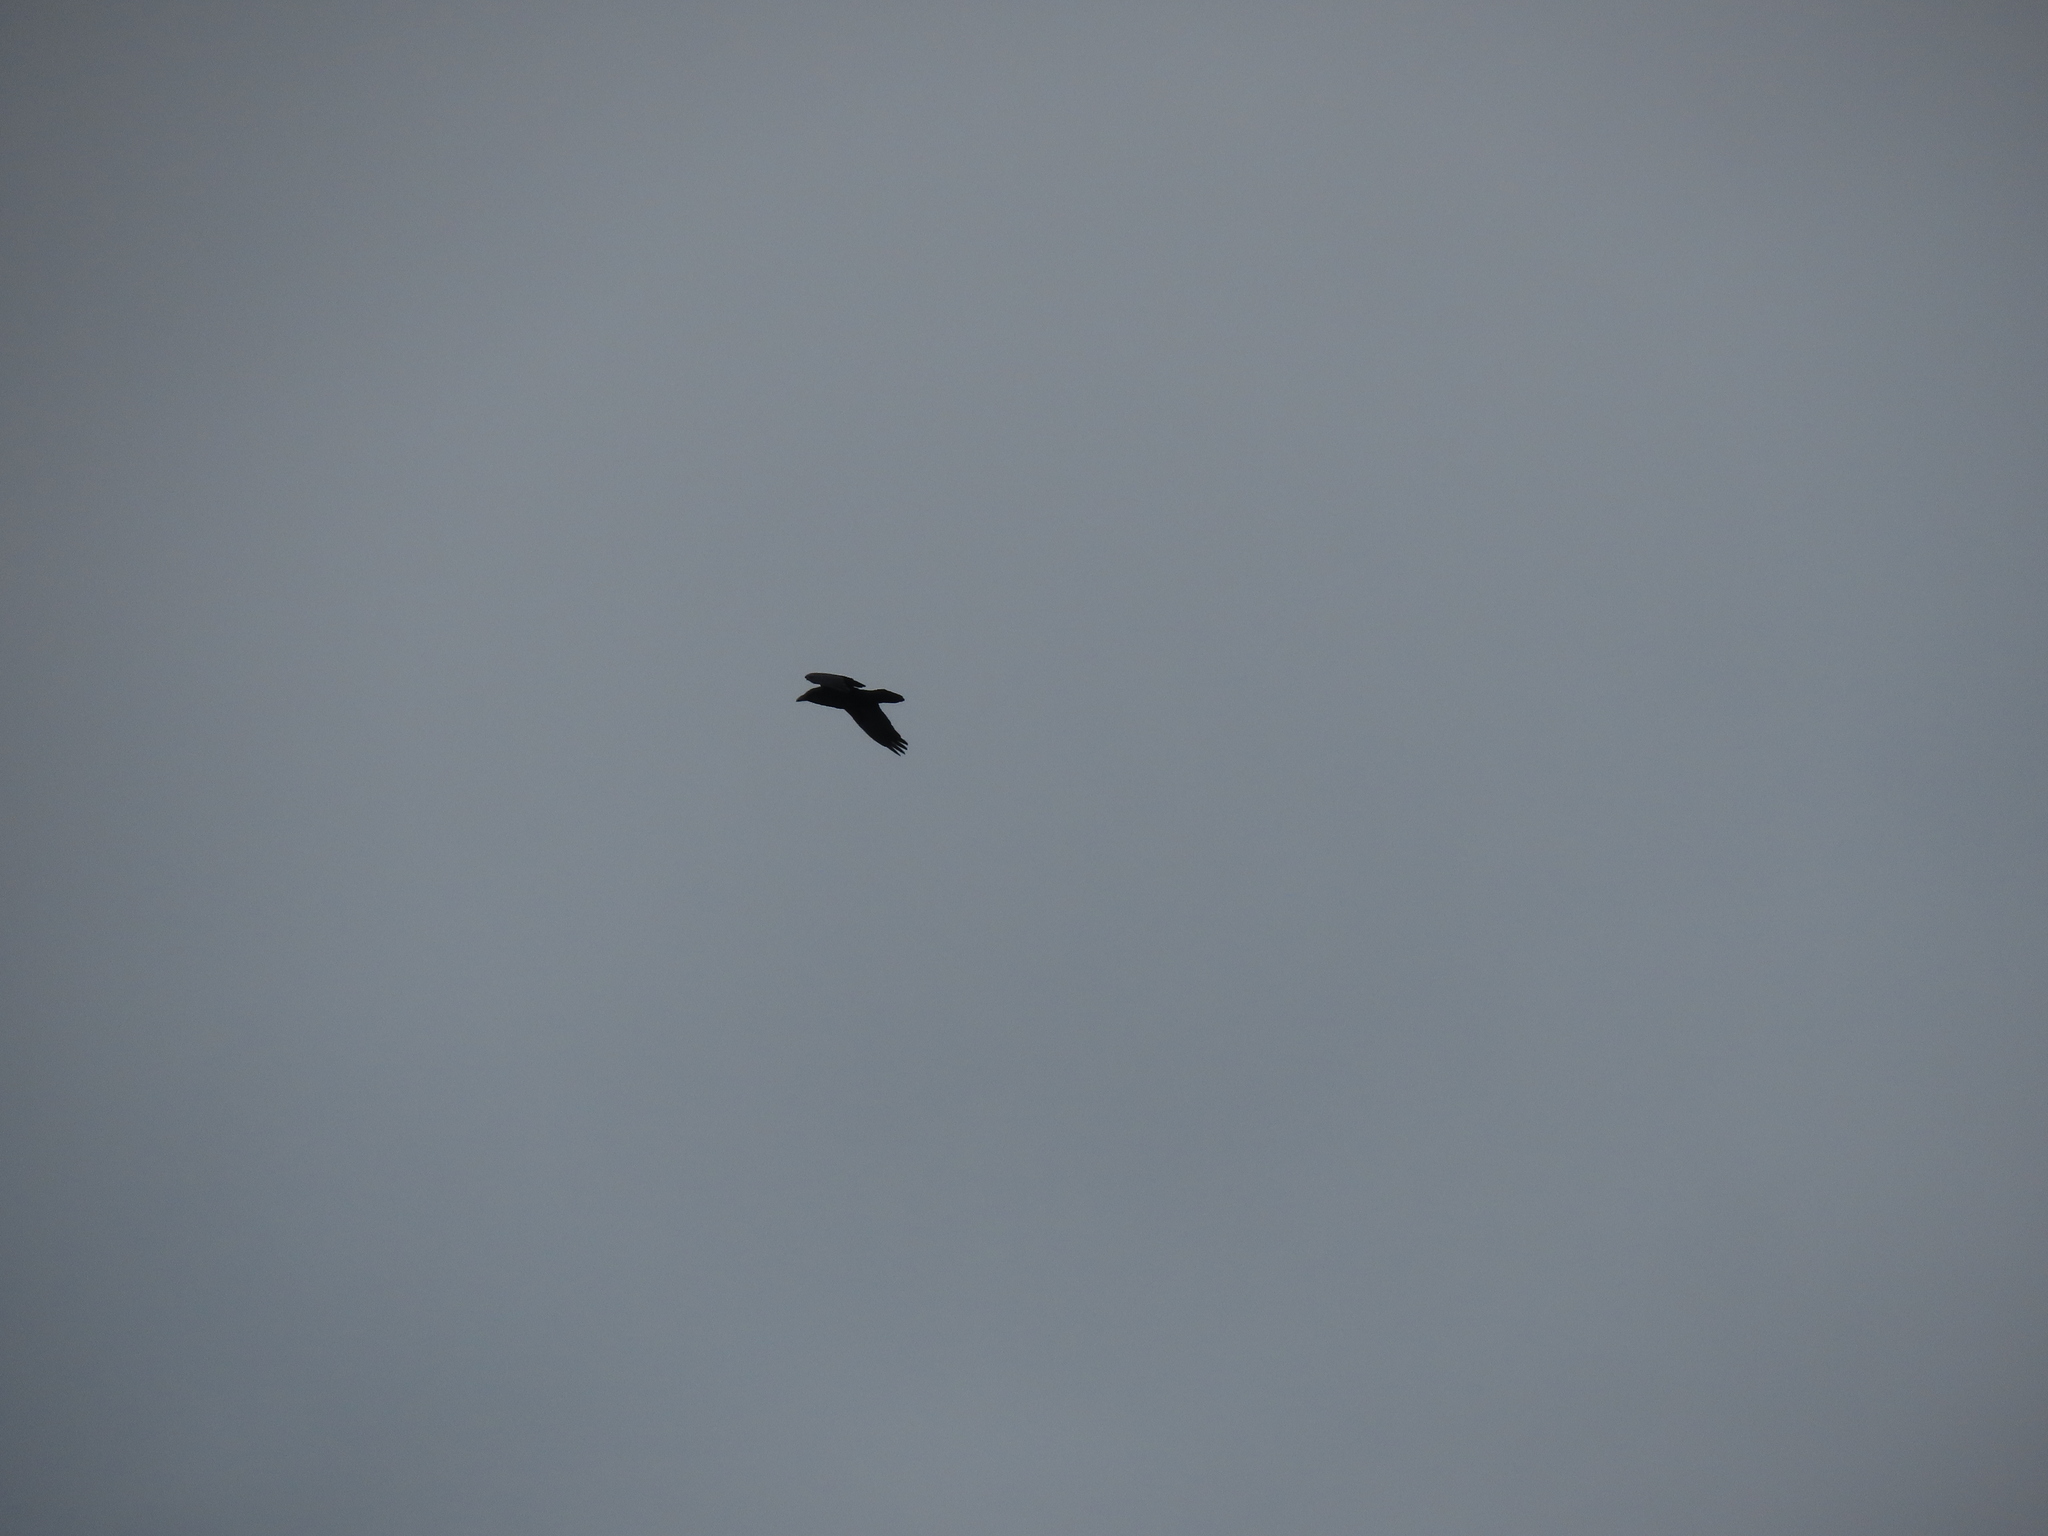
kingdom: Animalia
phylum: Chordata
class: Aves
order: Passeriformes
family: Corvidae
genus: Corvus
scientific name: Corvus corax
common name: Common raven
